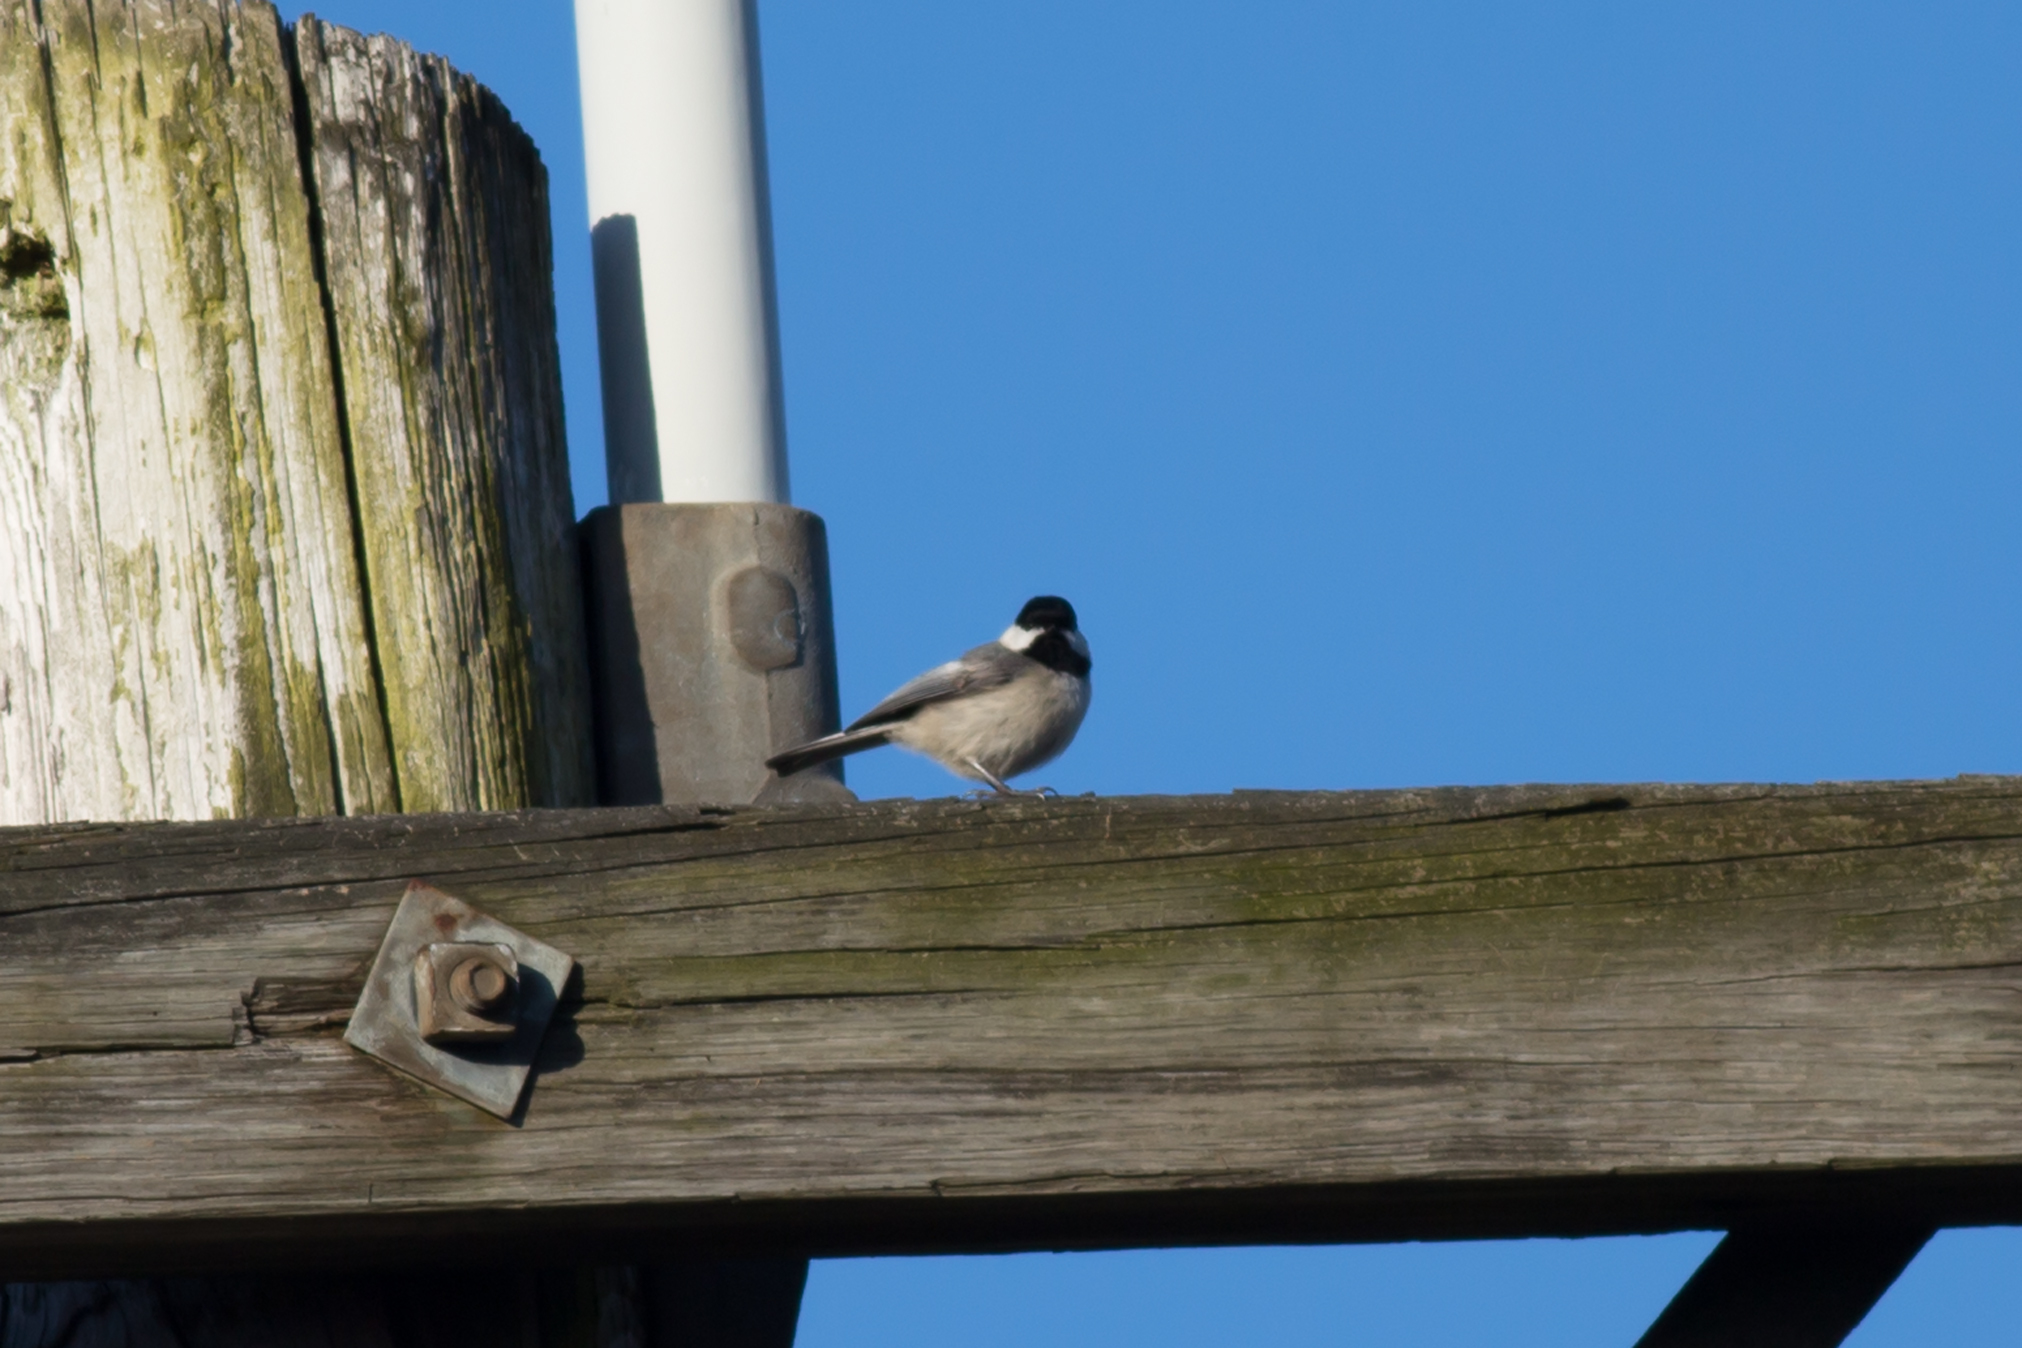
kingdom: Animalia
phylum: Chordata
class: Aves
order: Passeriformes
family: Paridae
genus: Poecile
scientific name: Poecile carolinensis
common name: Carolina chickadee
